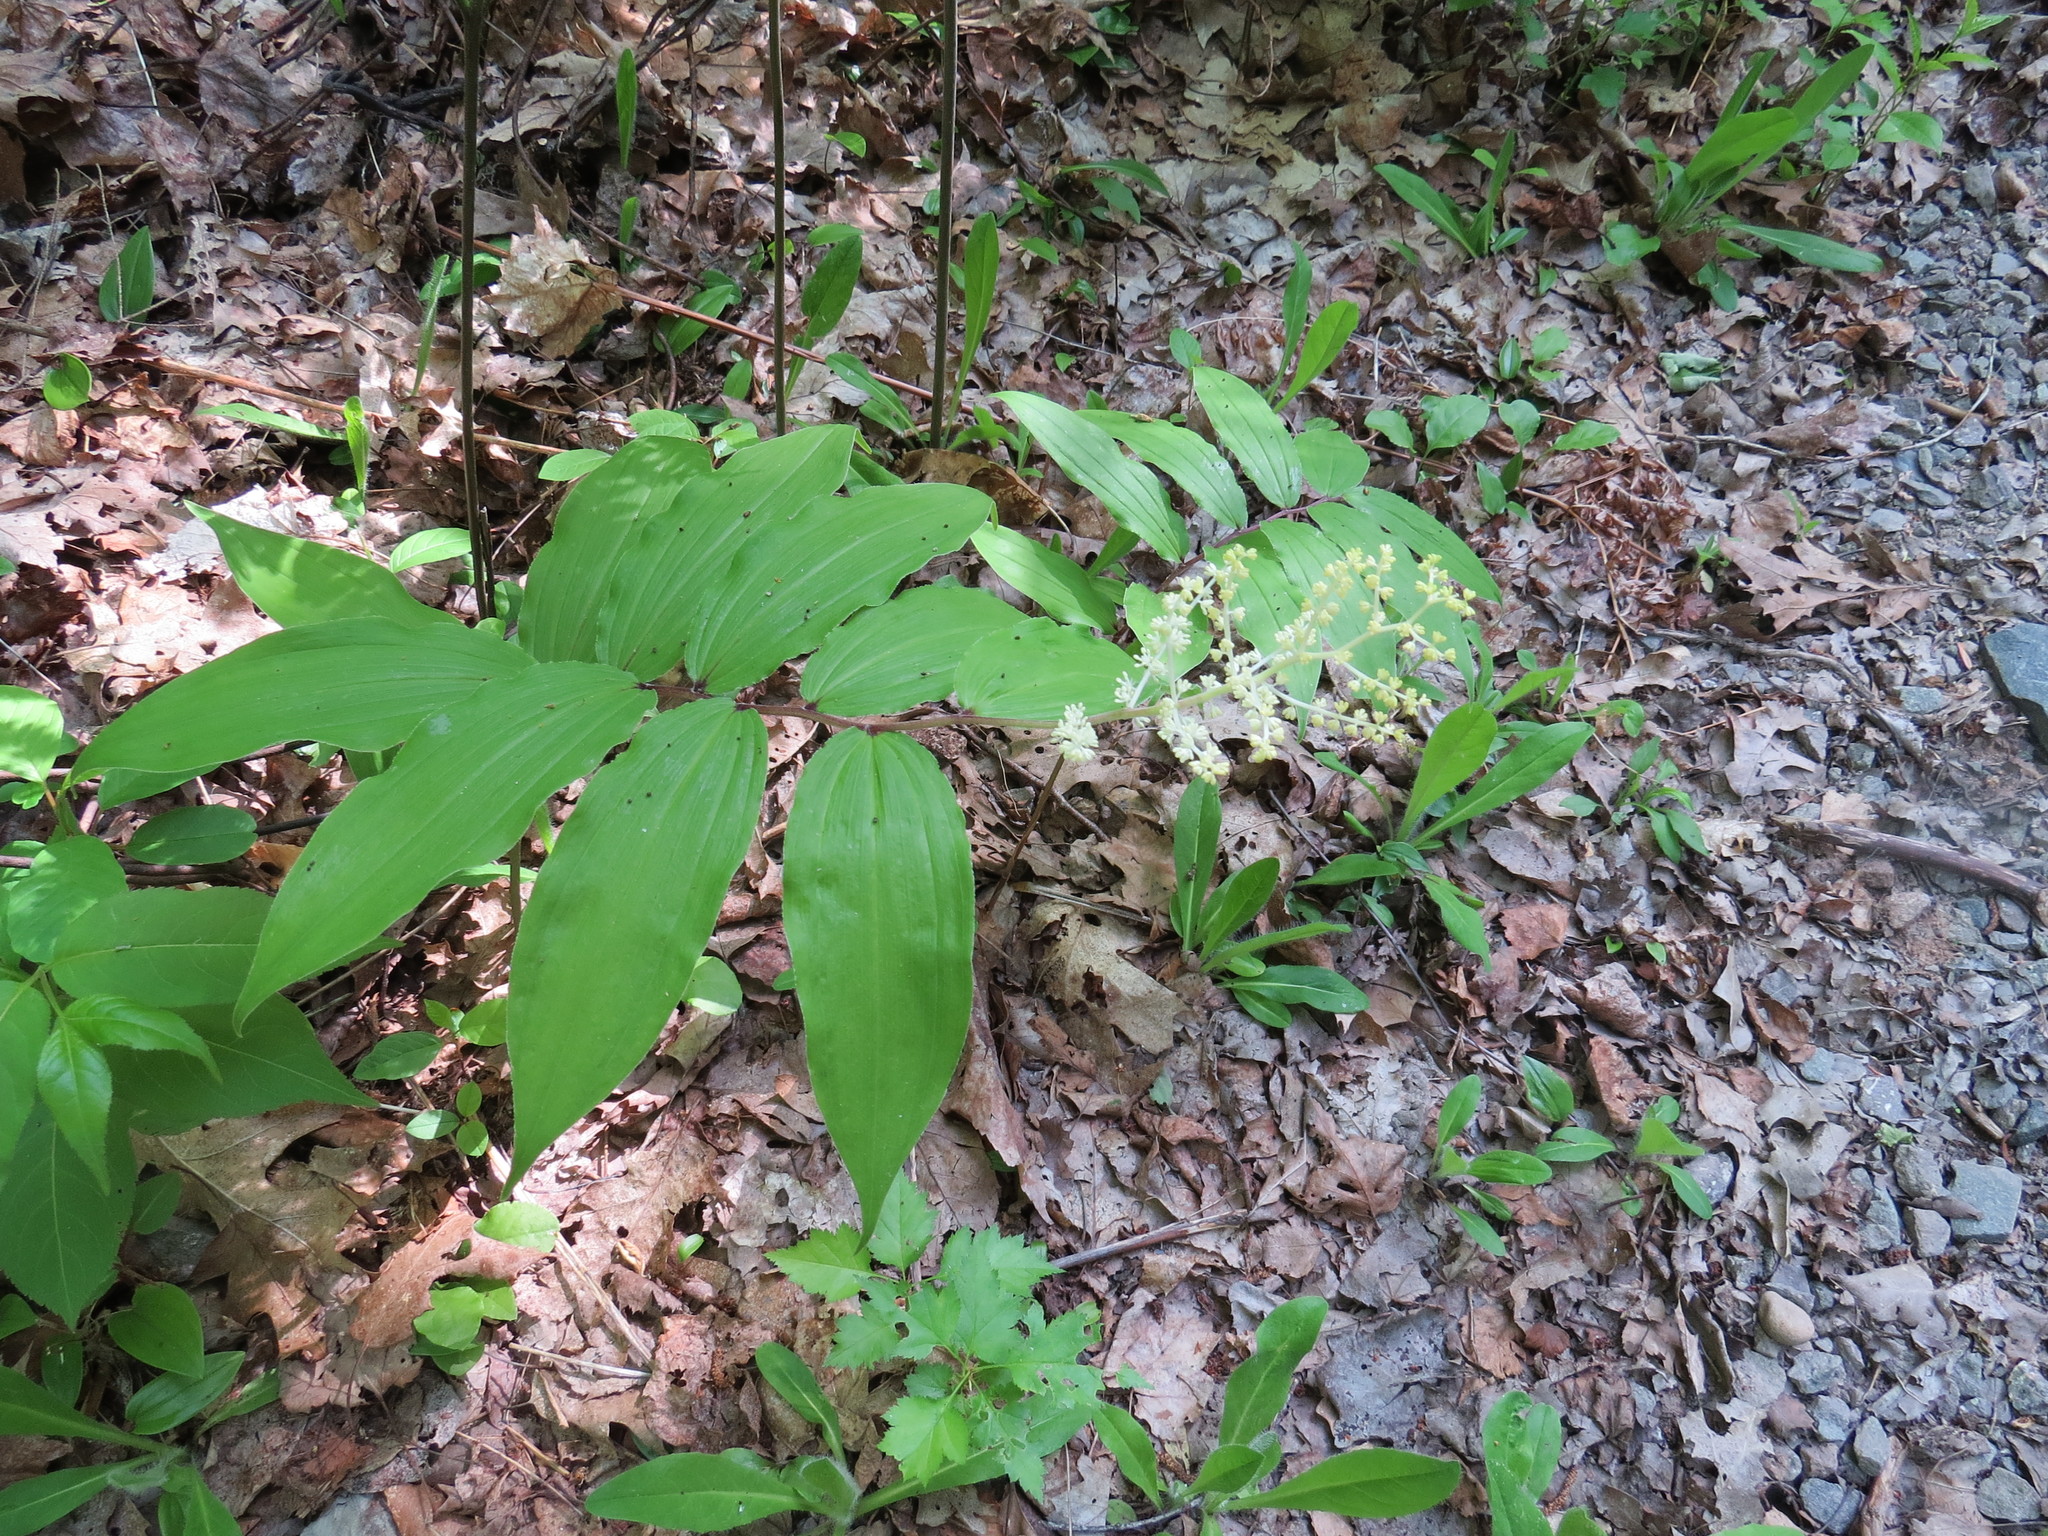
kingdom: Plantae
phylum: Tracheophyta
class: Liliopsida
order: Asparagales
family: Asparagaceae
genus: Maianthemum
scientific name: Maianthemum racemosum
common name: False spikenard
